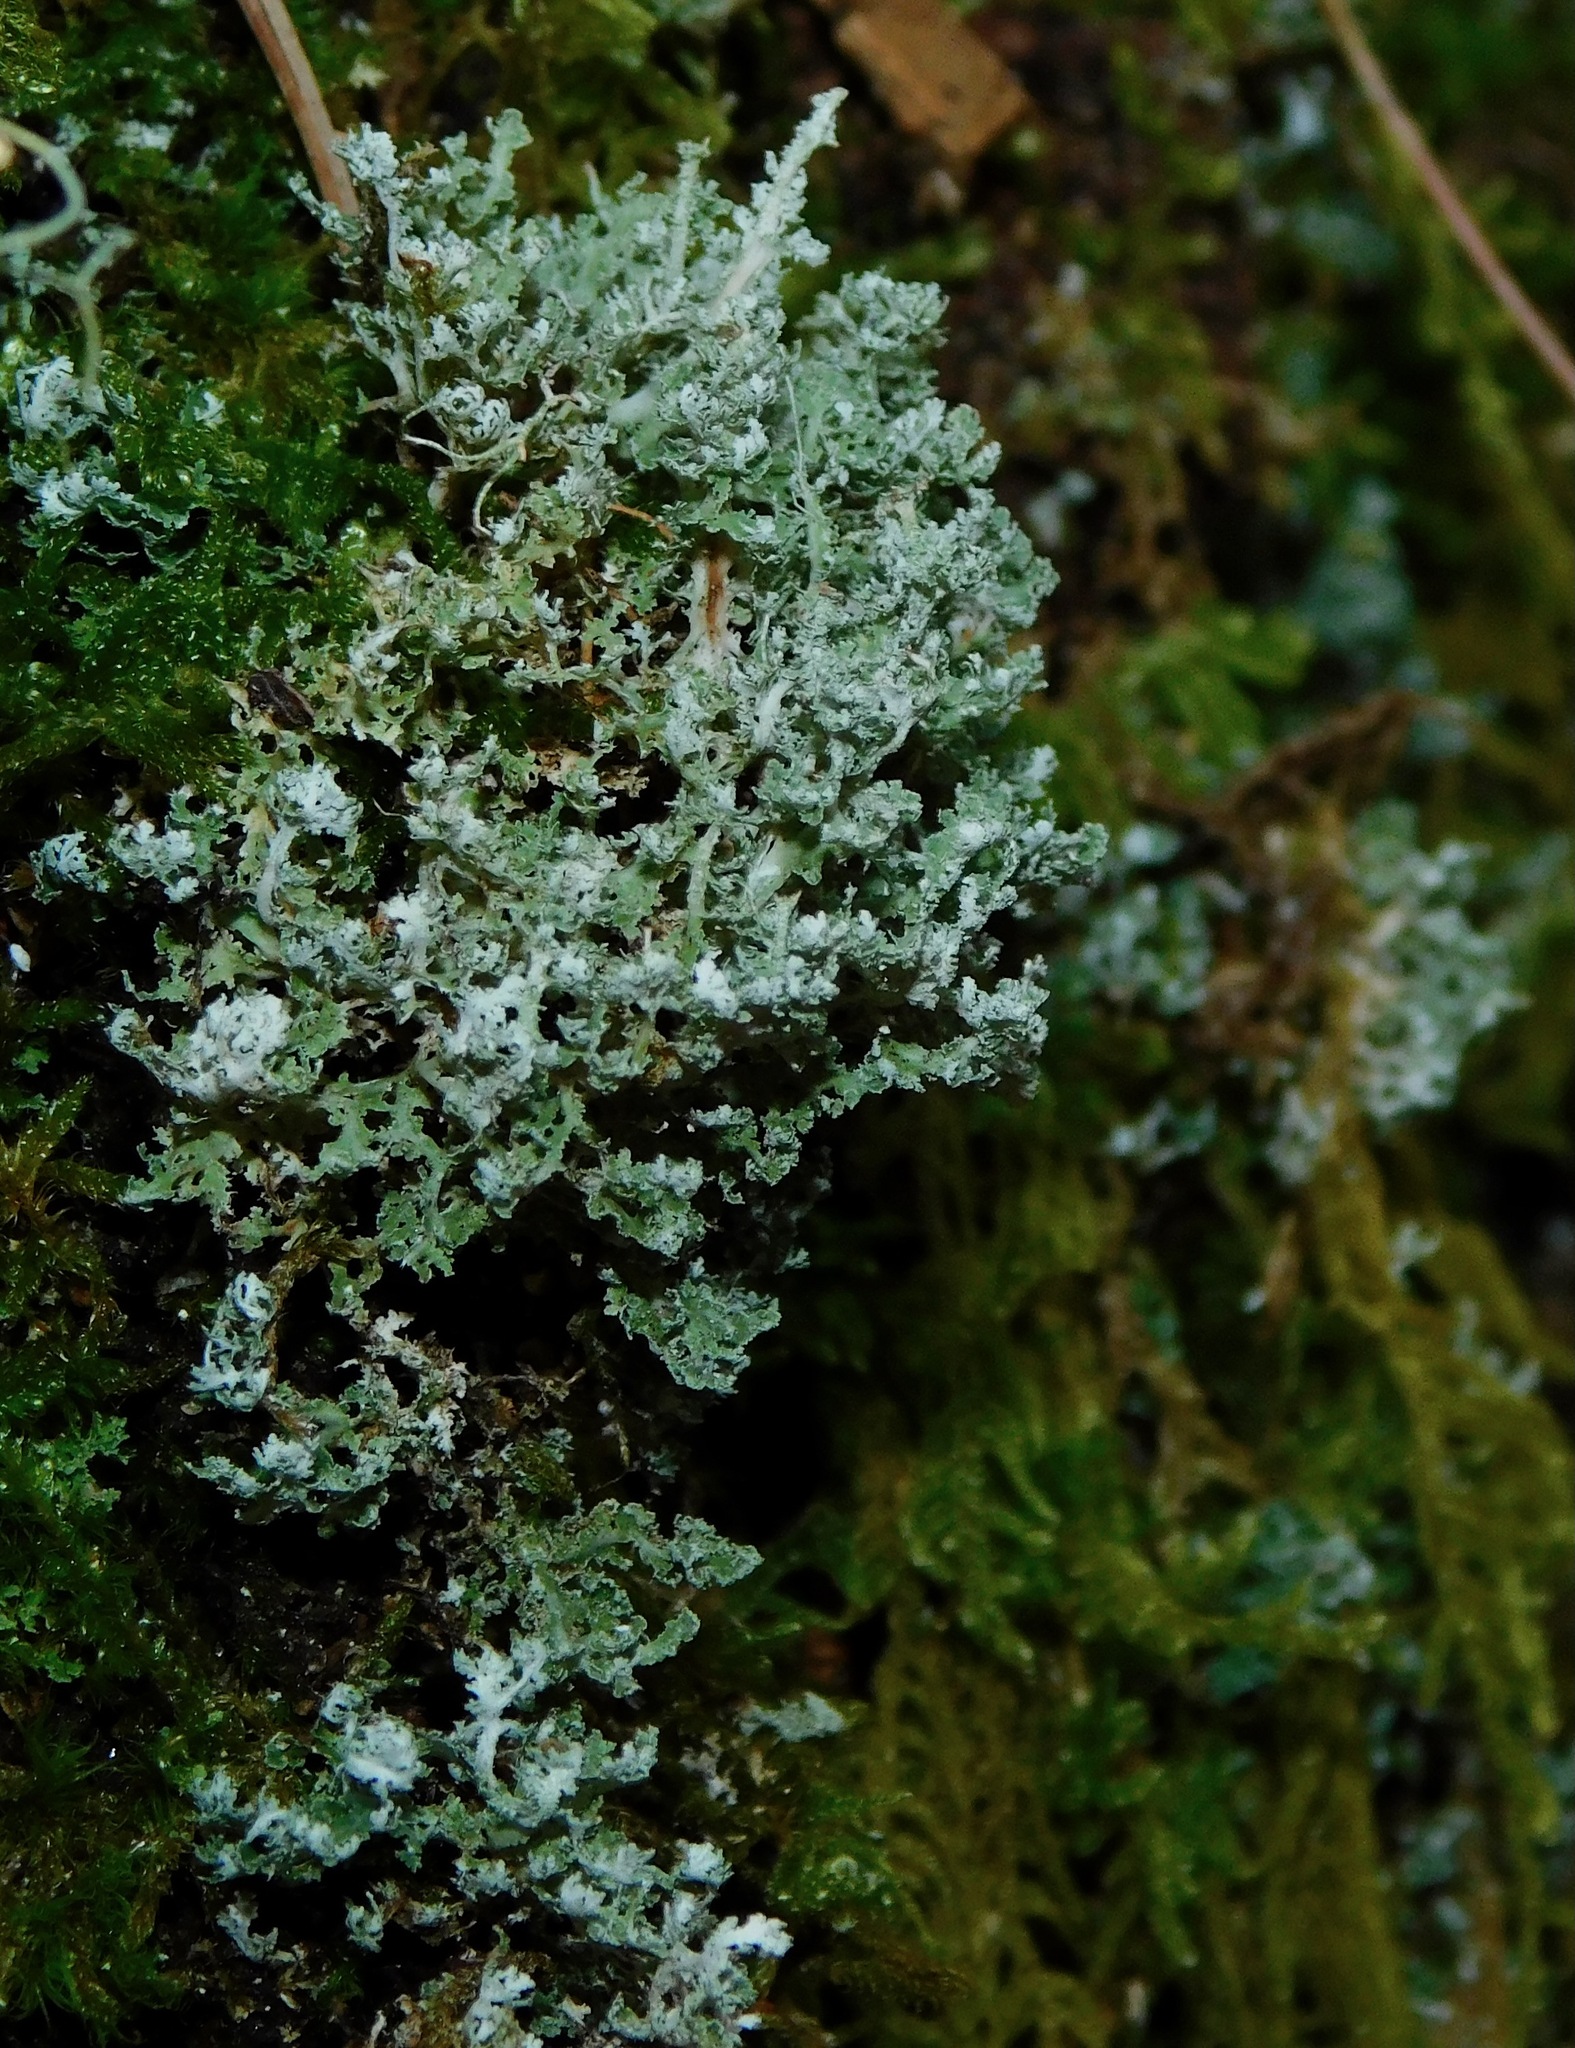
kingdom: Fungi
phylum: Ascomycota
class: Lecanoromycetes
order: Lecanorales
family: Cladoniaceae
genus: Cladonia
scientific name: Cladonia squamosa
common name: Dragon horn
